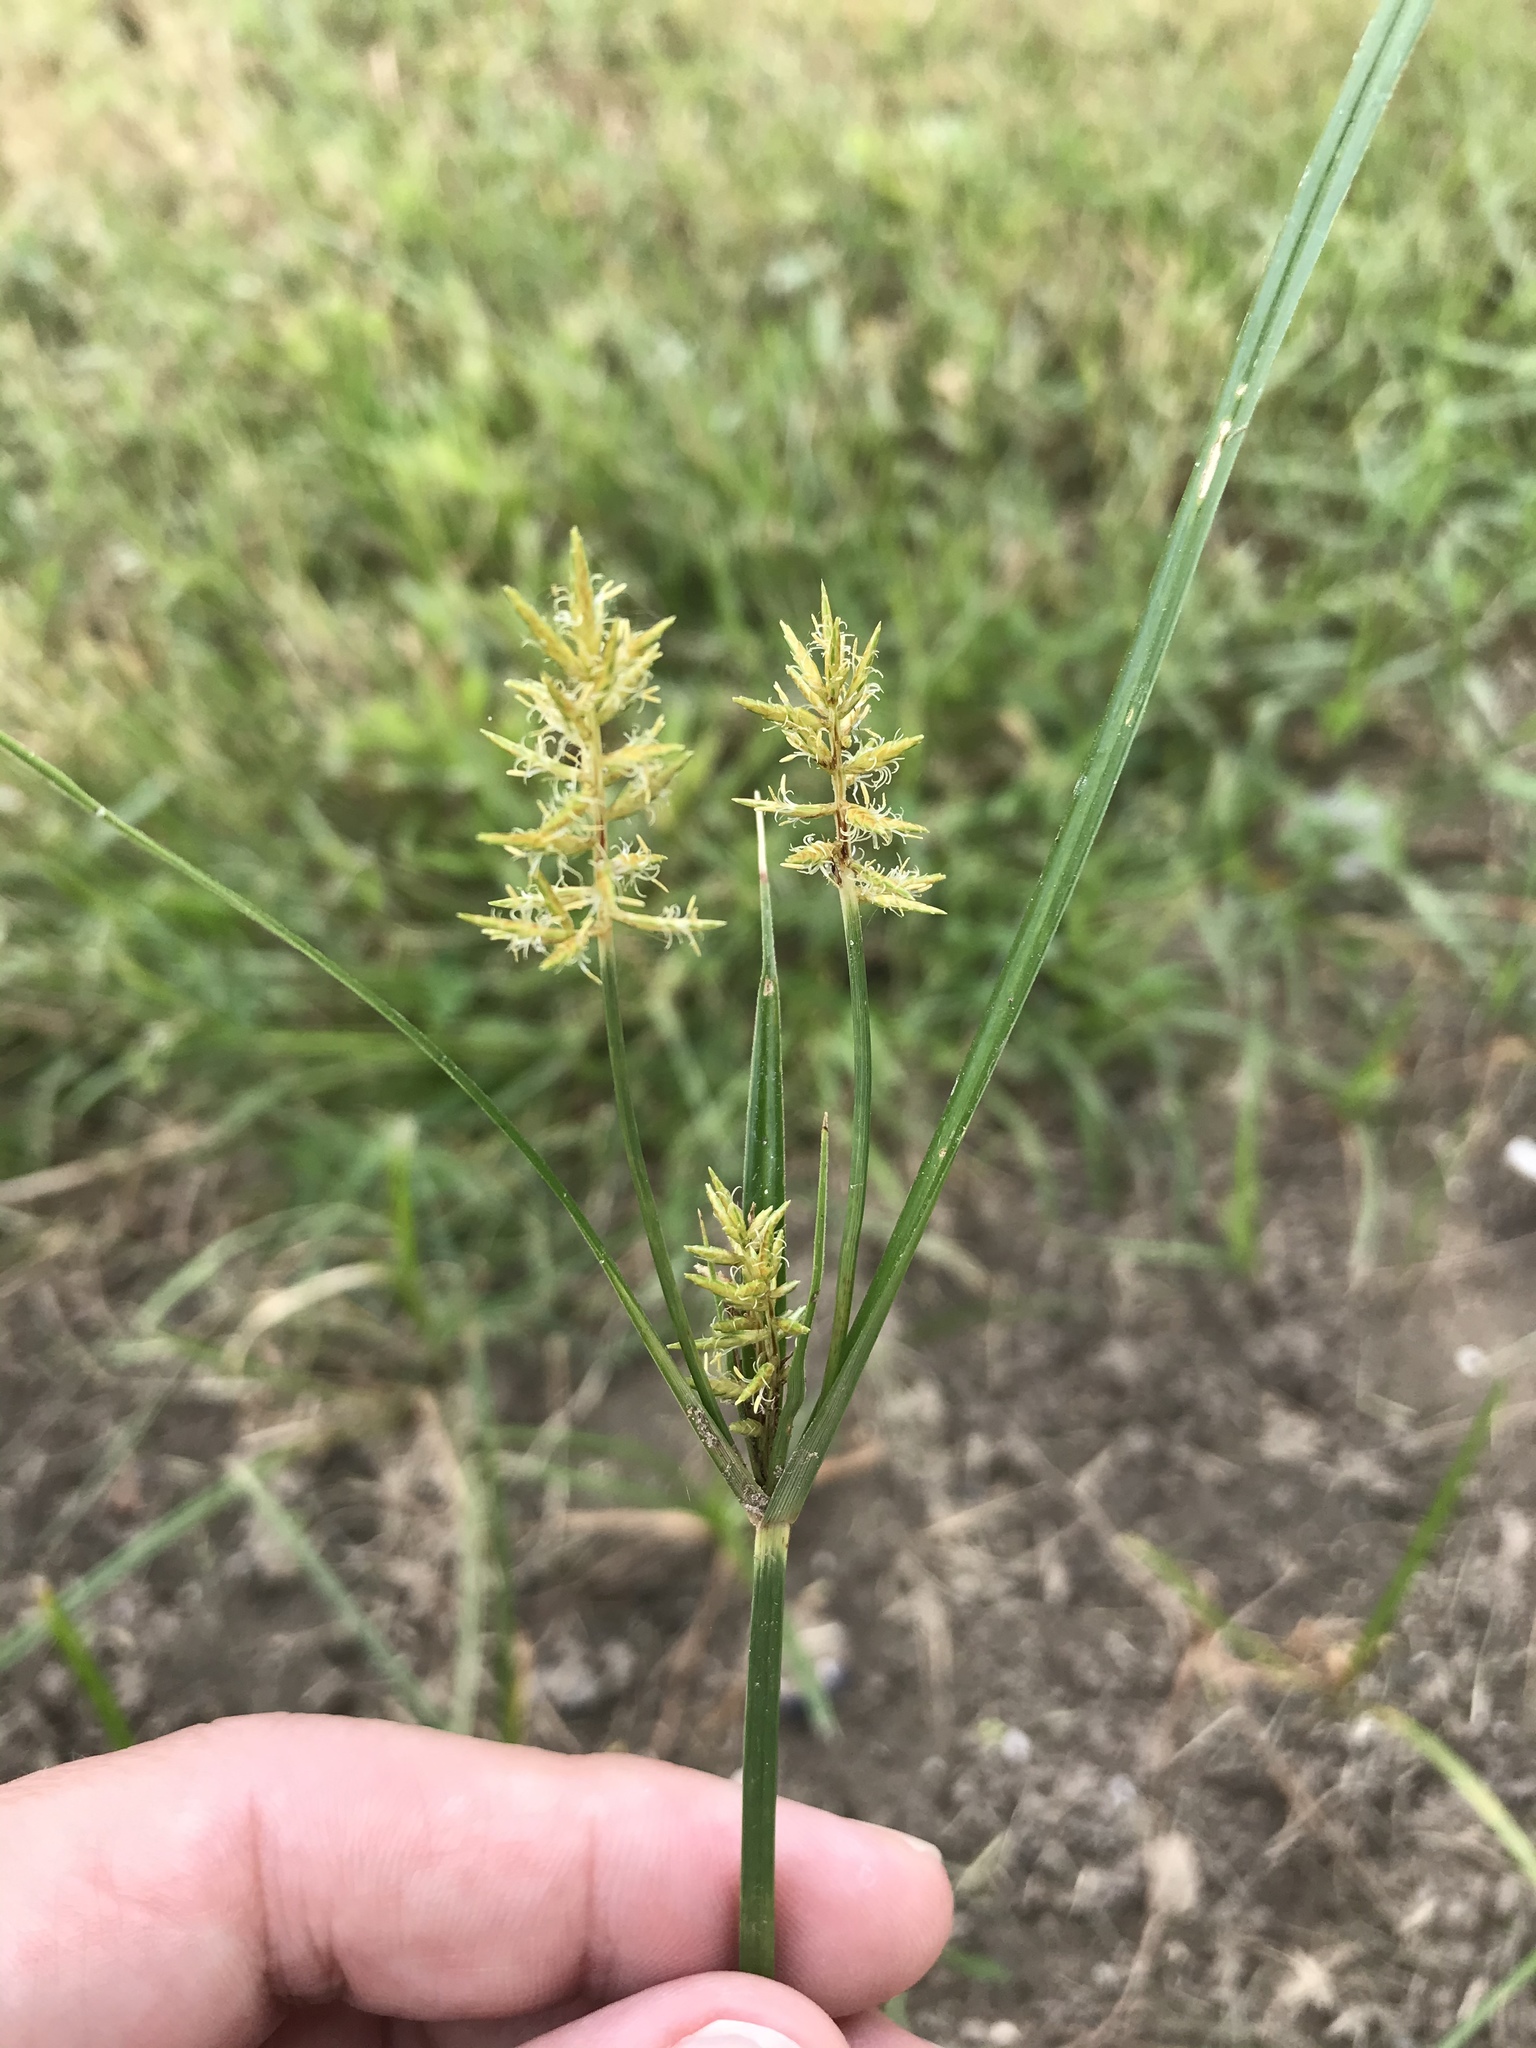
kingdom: Plantae
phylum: Tracheophyta
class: Liliopsida
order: Poales
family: Cyperaceae
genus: Cyperus
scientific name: Cyperus esculentus
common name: Yellow nutsedge
